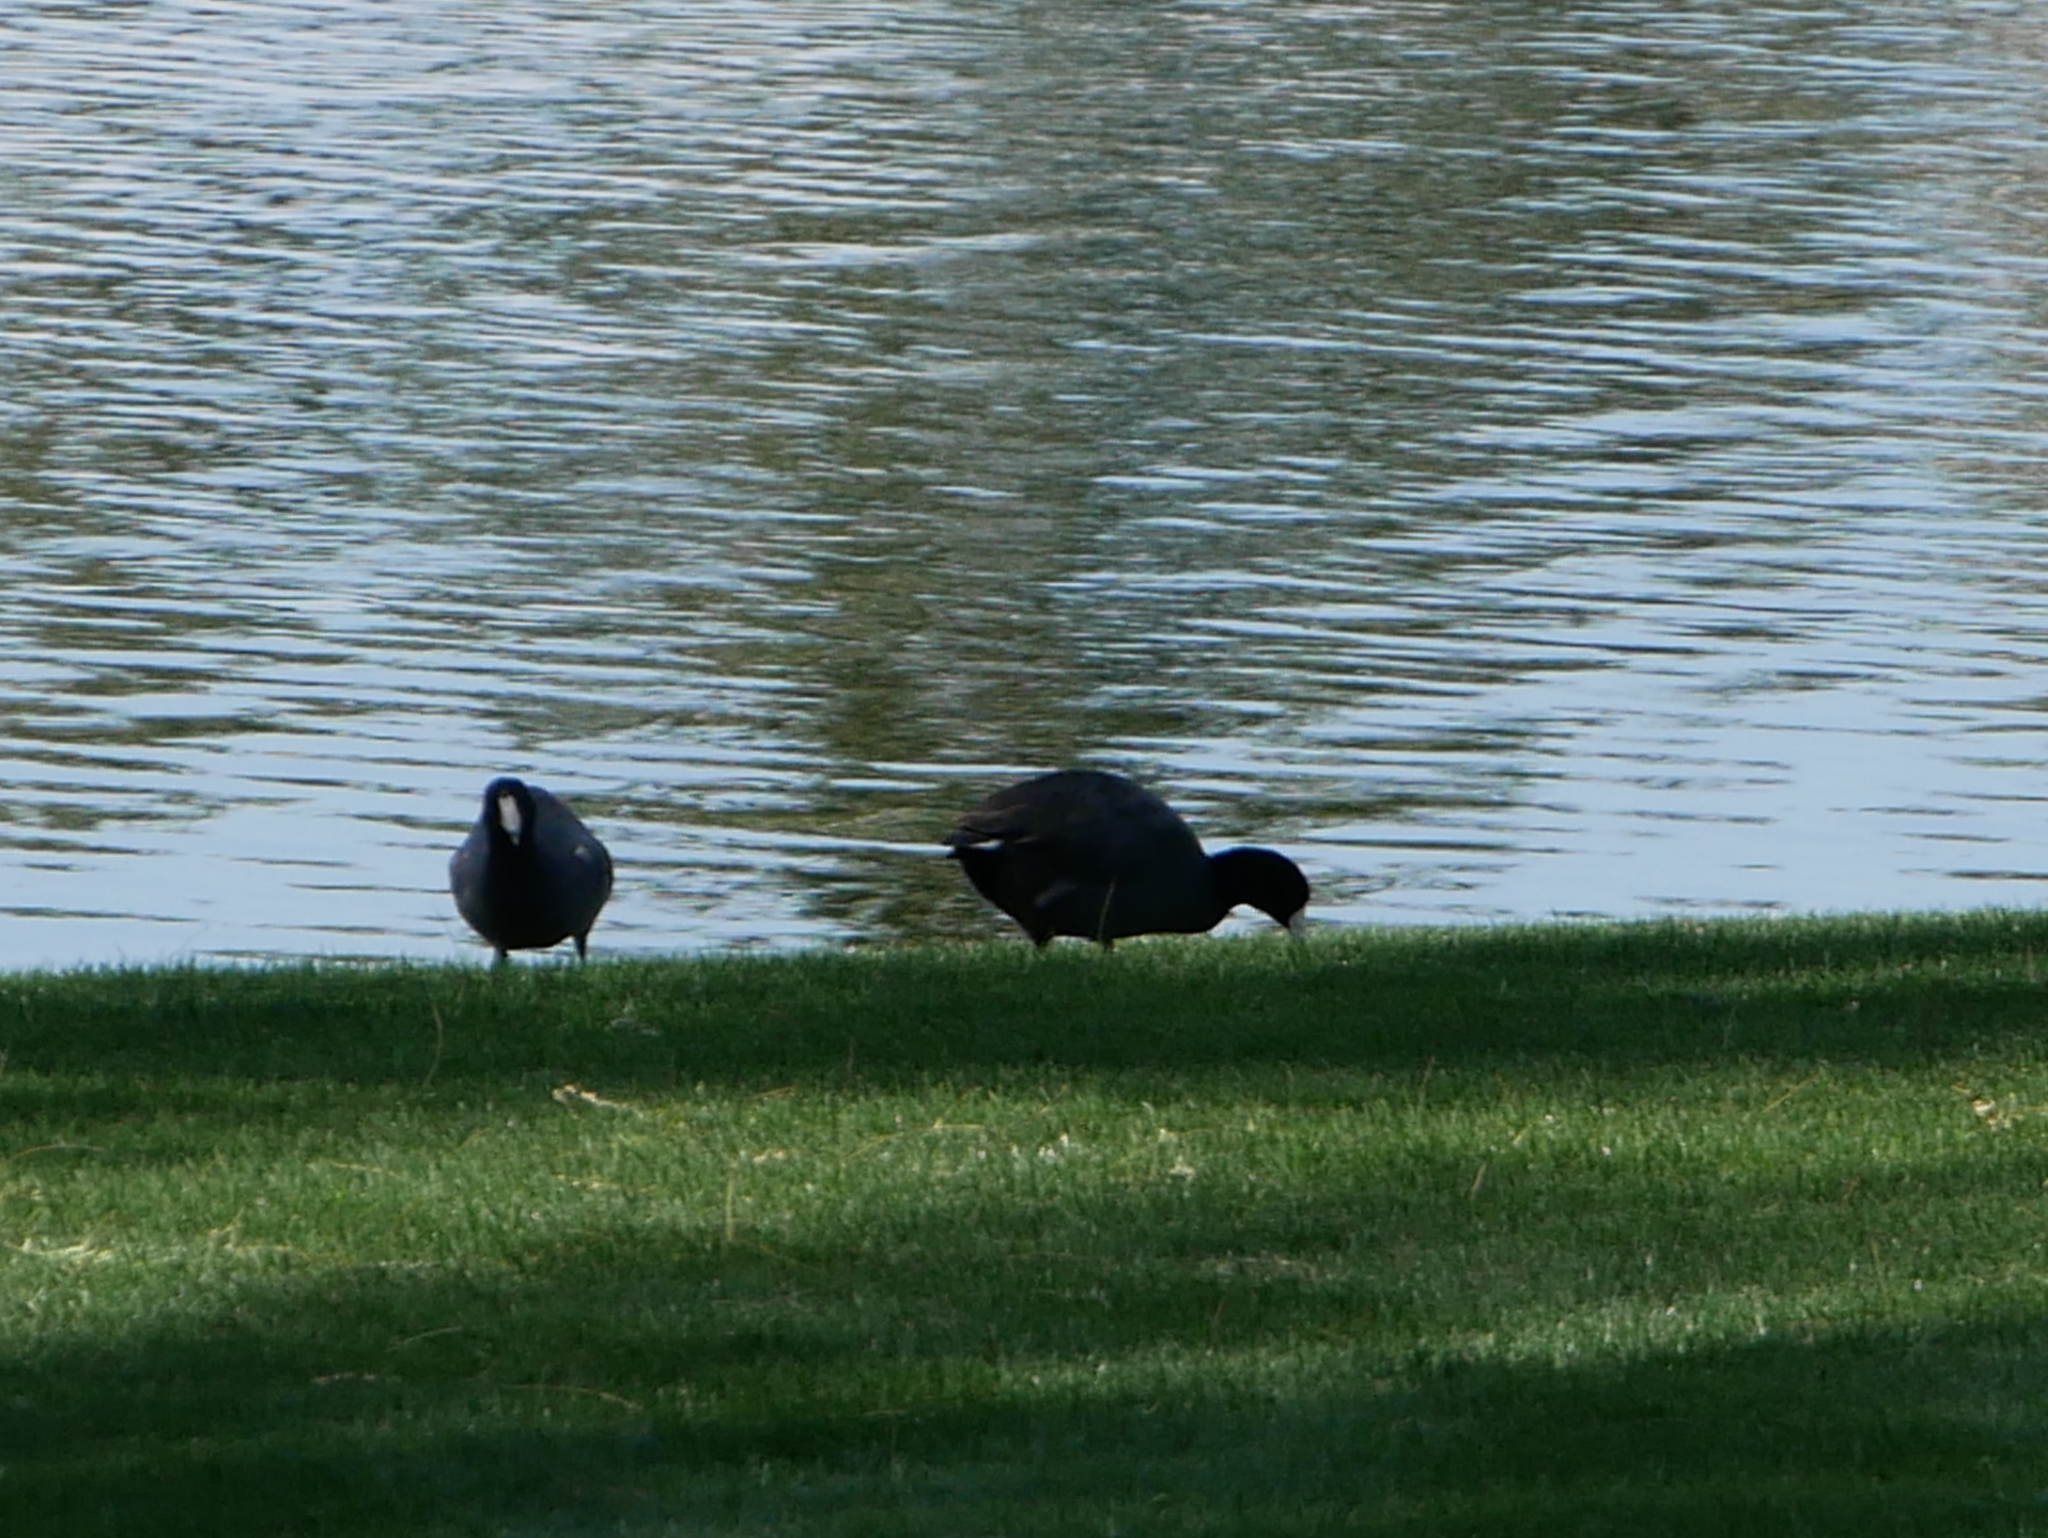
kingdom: Animalia
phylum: Chordata
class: Aves
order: Gruiformes
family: Rallidae
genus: Fulica
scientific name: Fulica americana
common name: American coot
